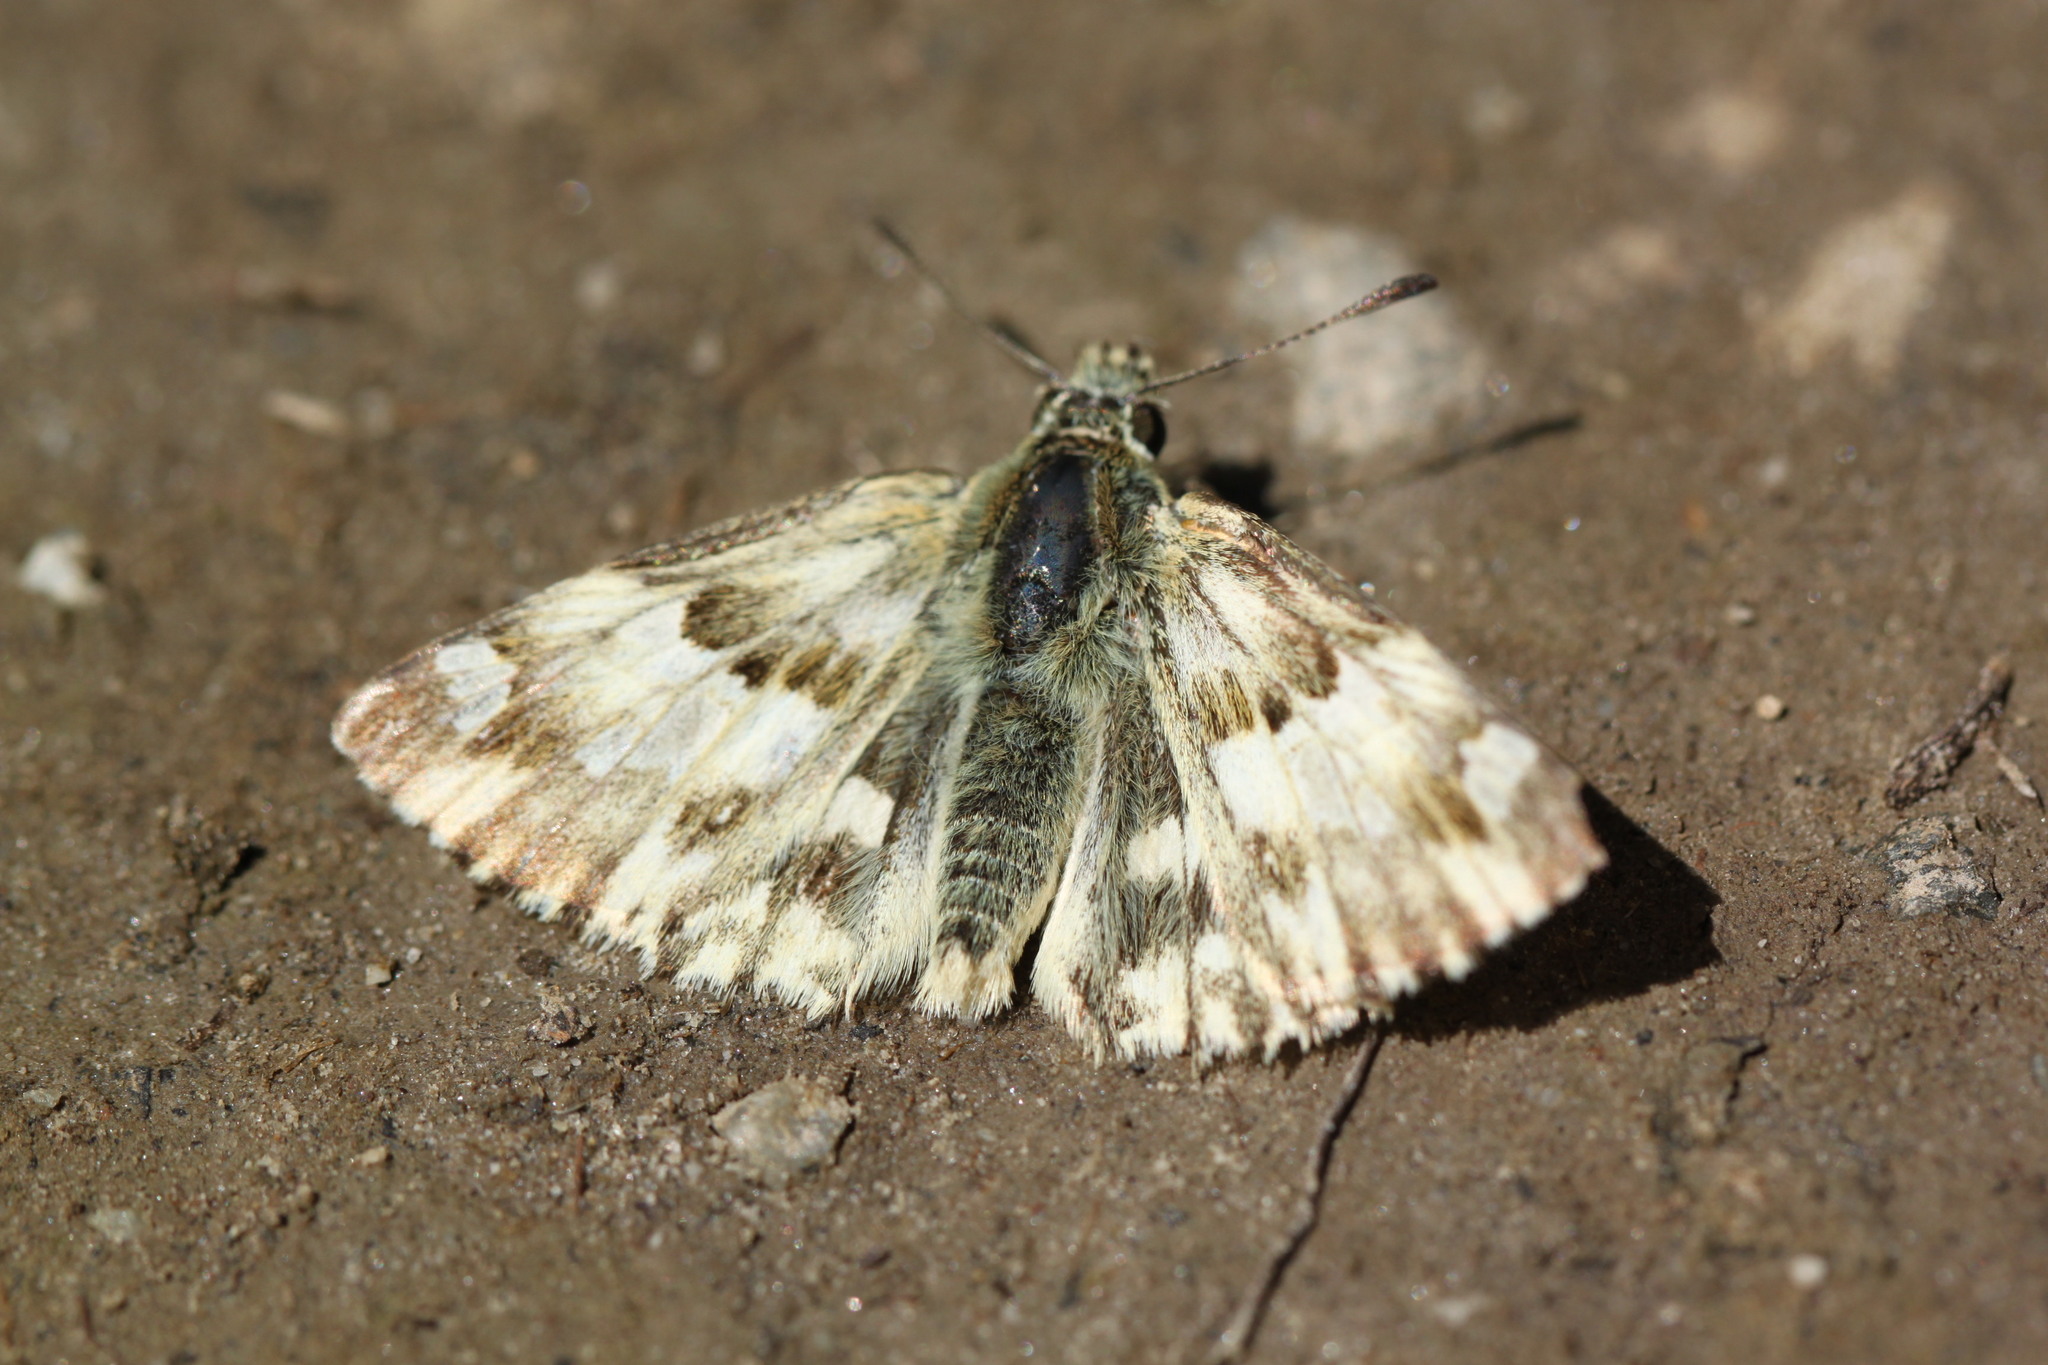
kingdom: Animalia
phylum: Arthropoda
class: Insecta
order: Lepidoptera
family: Hesperiidae
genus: Carcharodus
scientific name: Carcharodus lavatherae
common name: Marbled skipper
